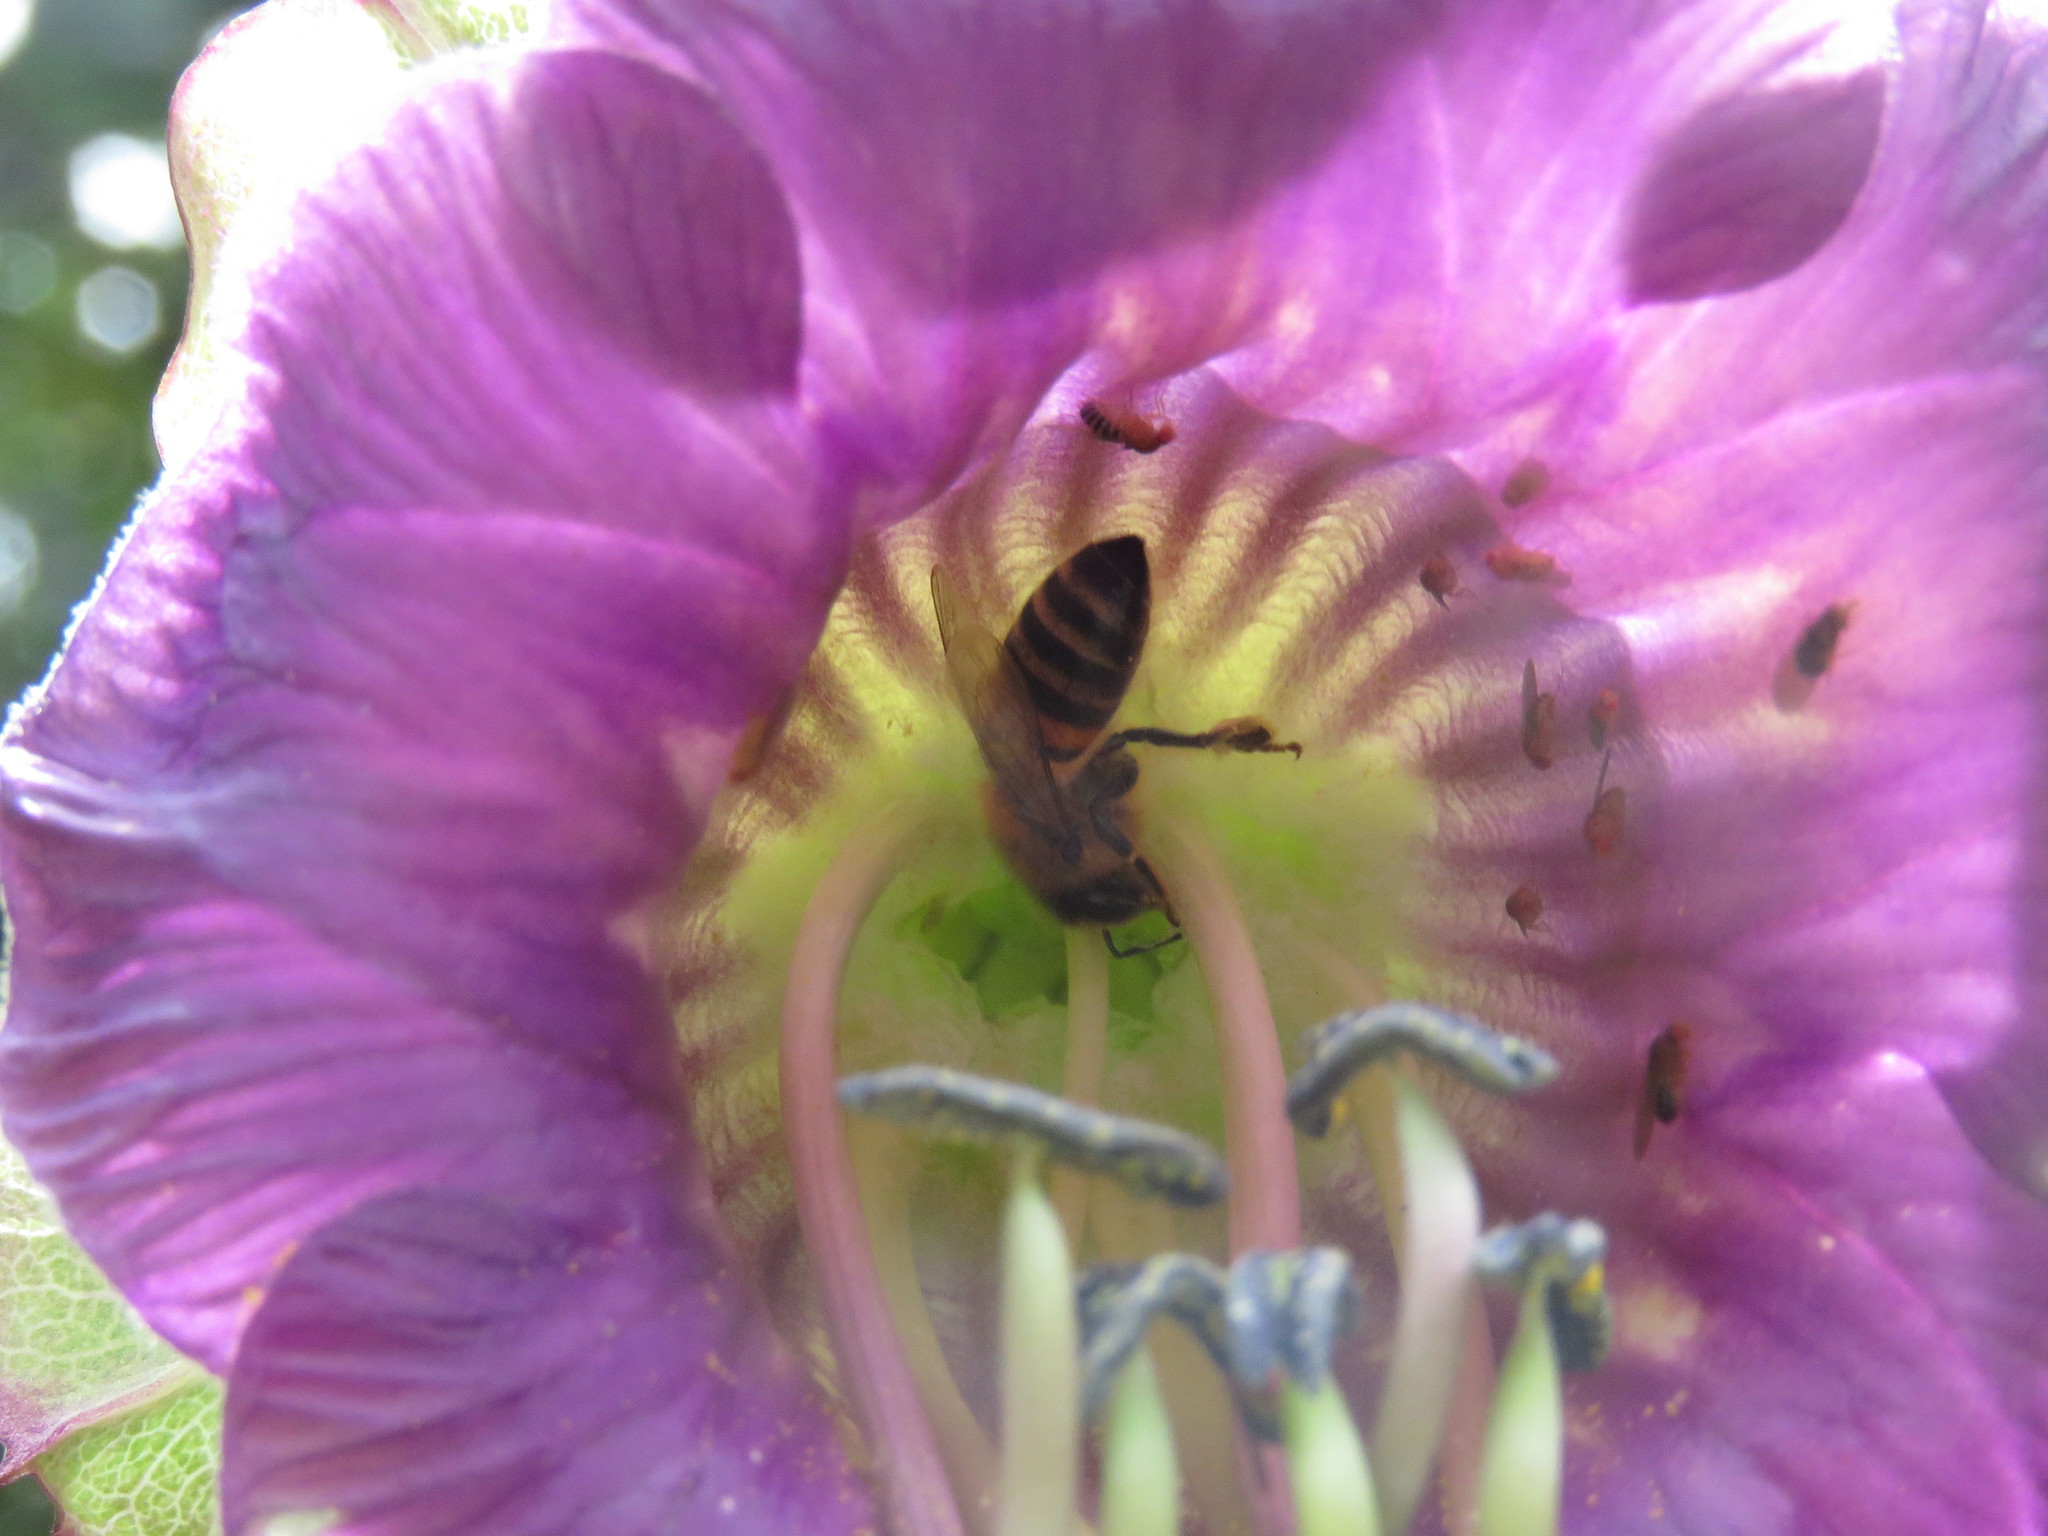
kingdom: Animalia
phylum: Arthropoda
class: Insecta
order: Hymenoptera
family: Apidae
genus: Apis
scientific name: Apis mellifera
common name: Honey bee
